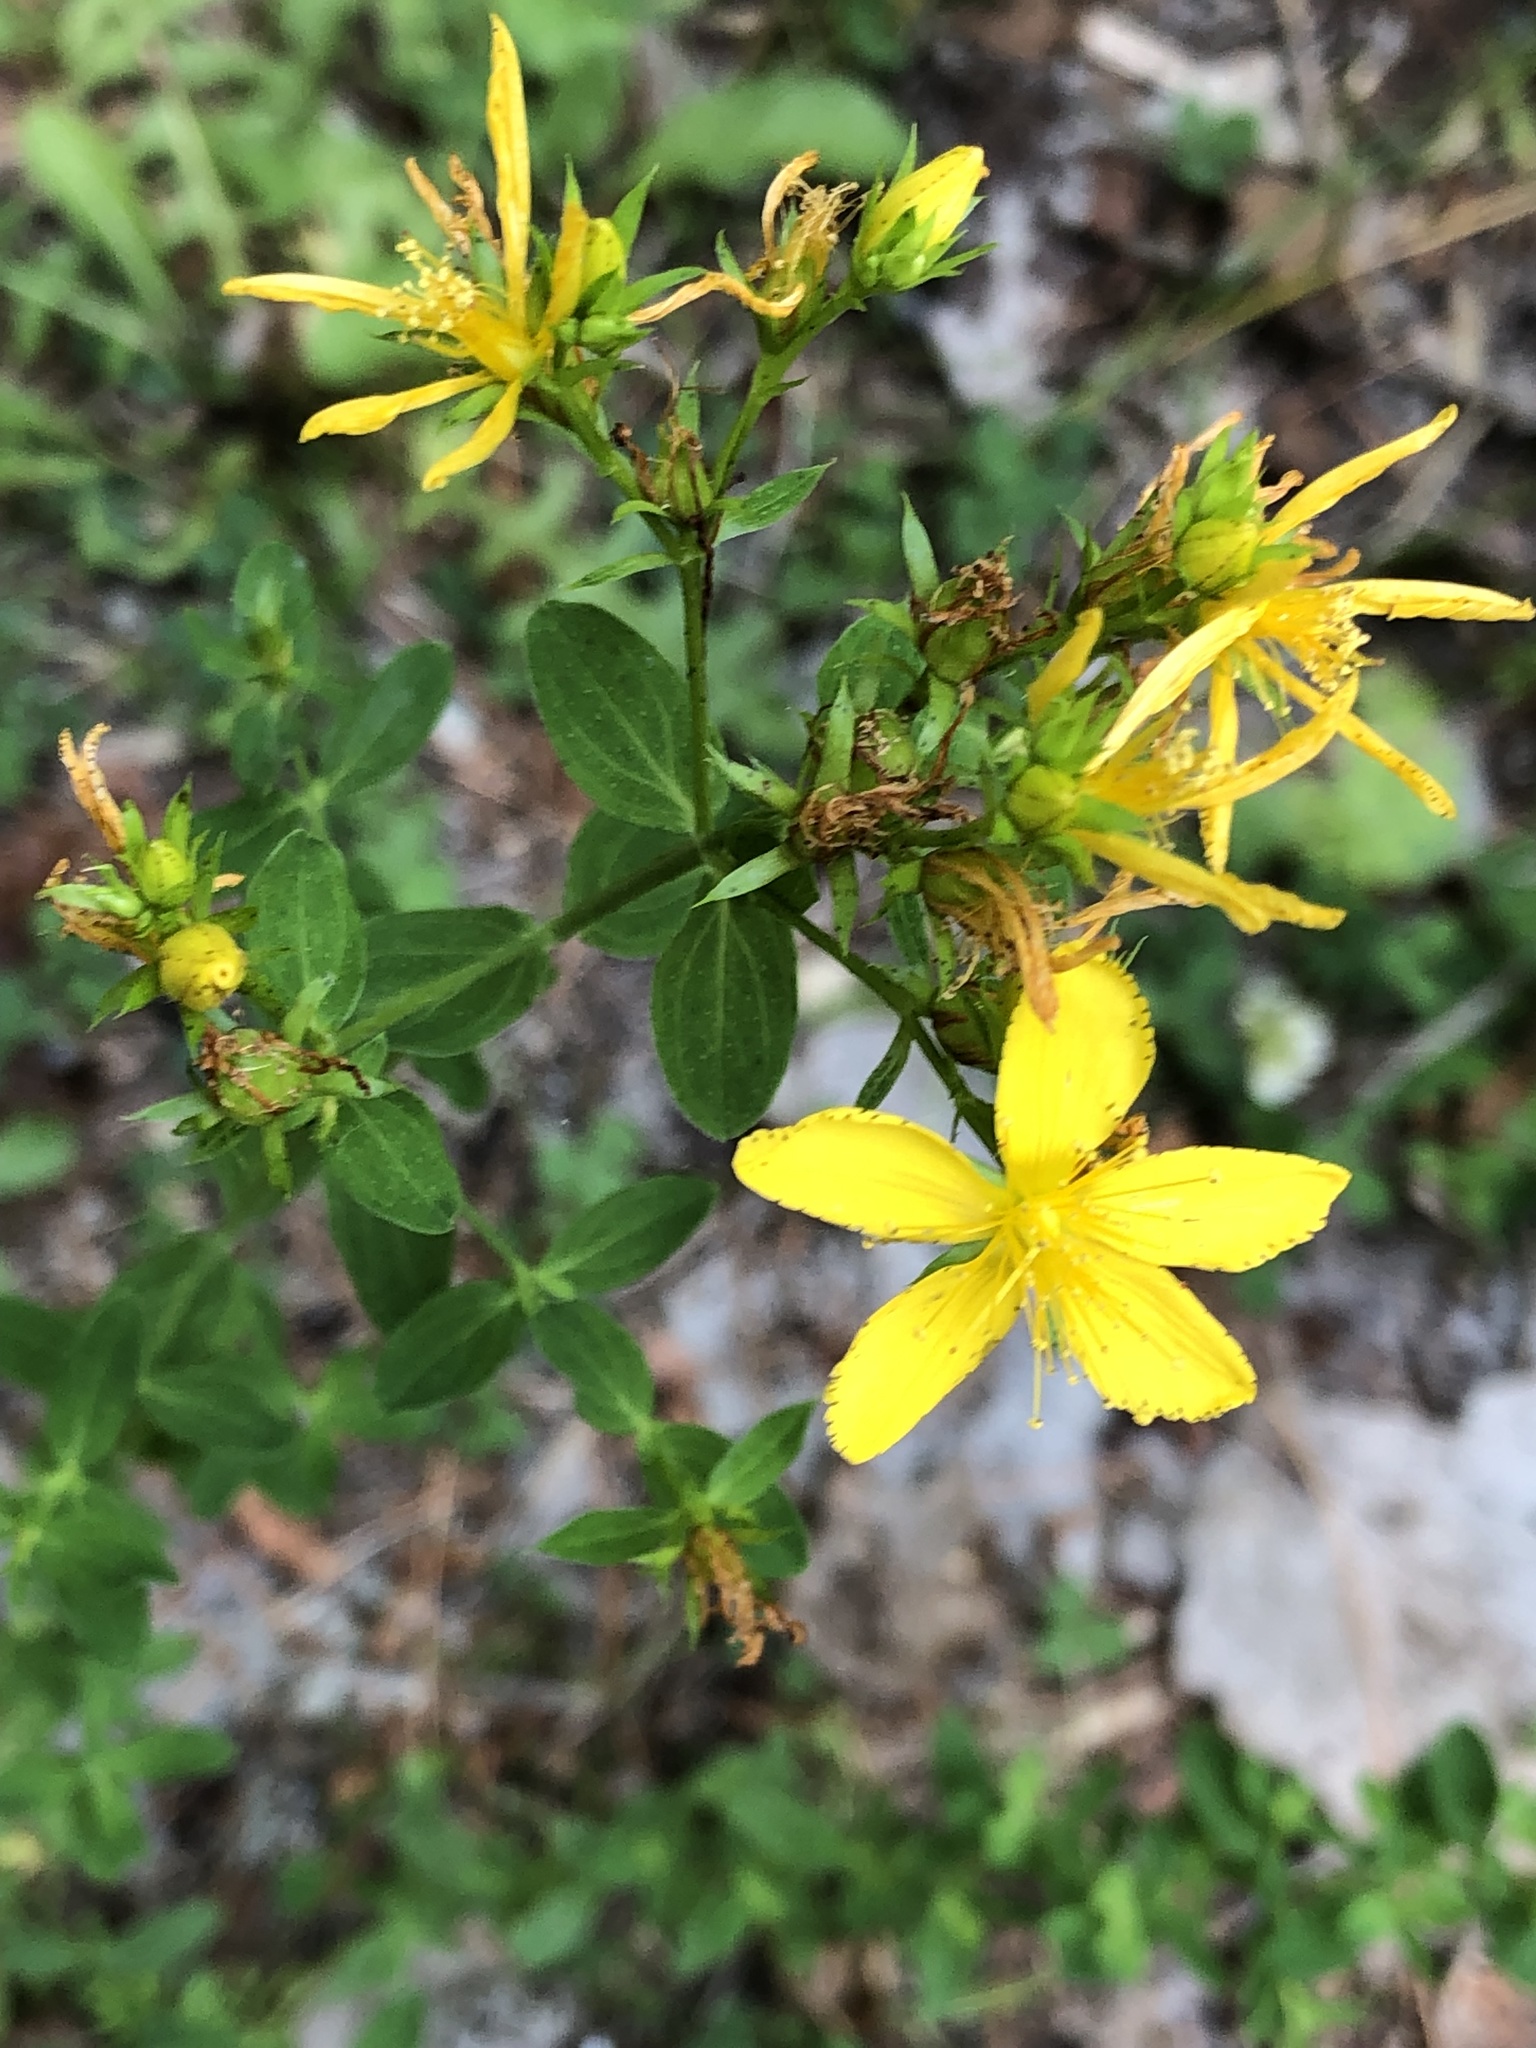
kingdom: Plantae
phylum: Tracheophyta
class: Magnoliopsida
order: Malpighiales
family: Hypericaceae
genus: Hypericum
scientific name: Hypericum perforatum
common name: Common st. johnswort
